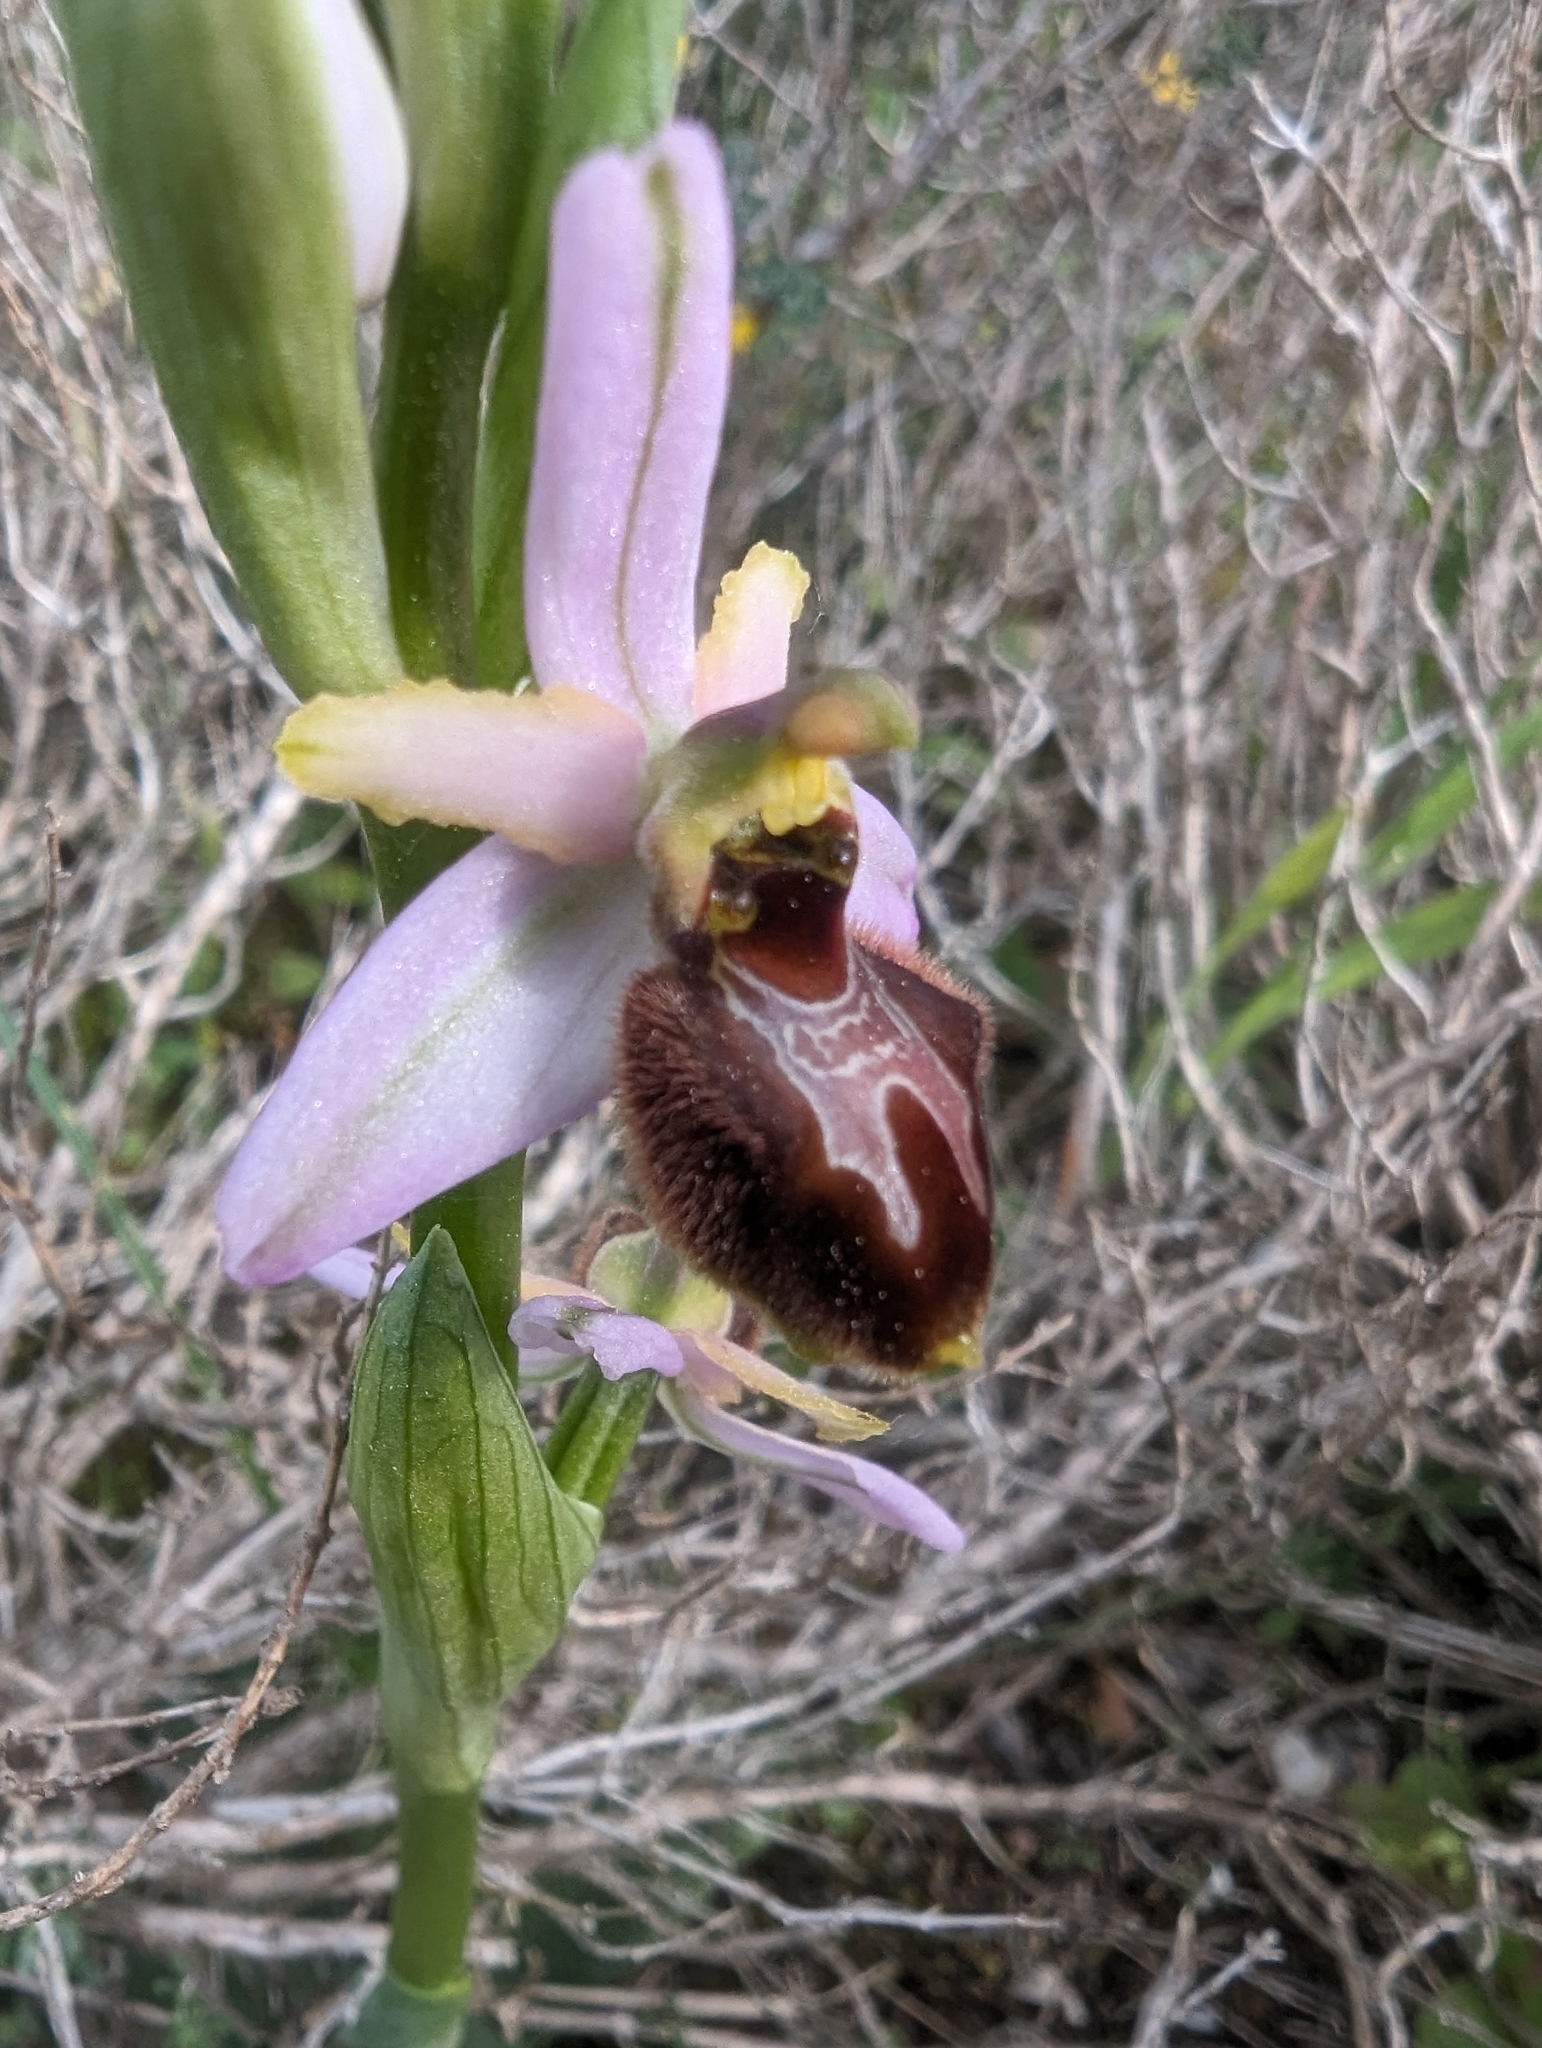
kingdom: Plantae
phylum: Tracheophyta
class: Liliopsida
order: Asparagales
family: Orchidaceae
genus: Ophrys
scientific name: Ophrys arachnitiformis
